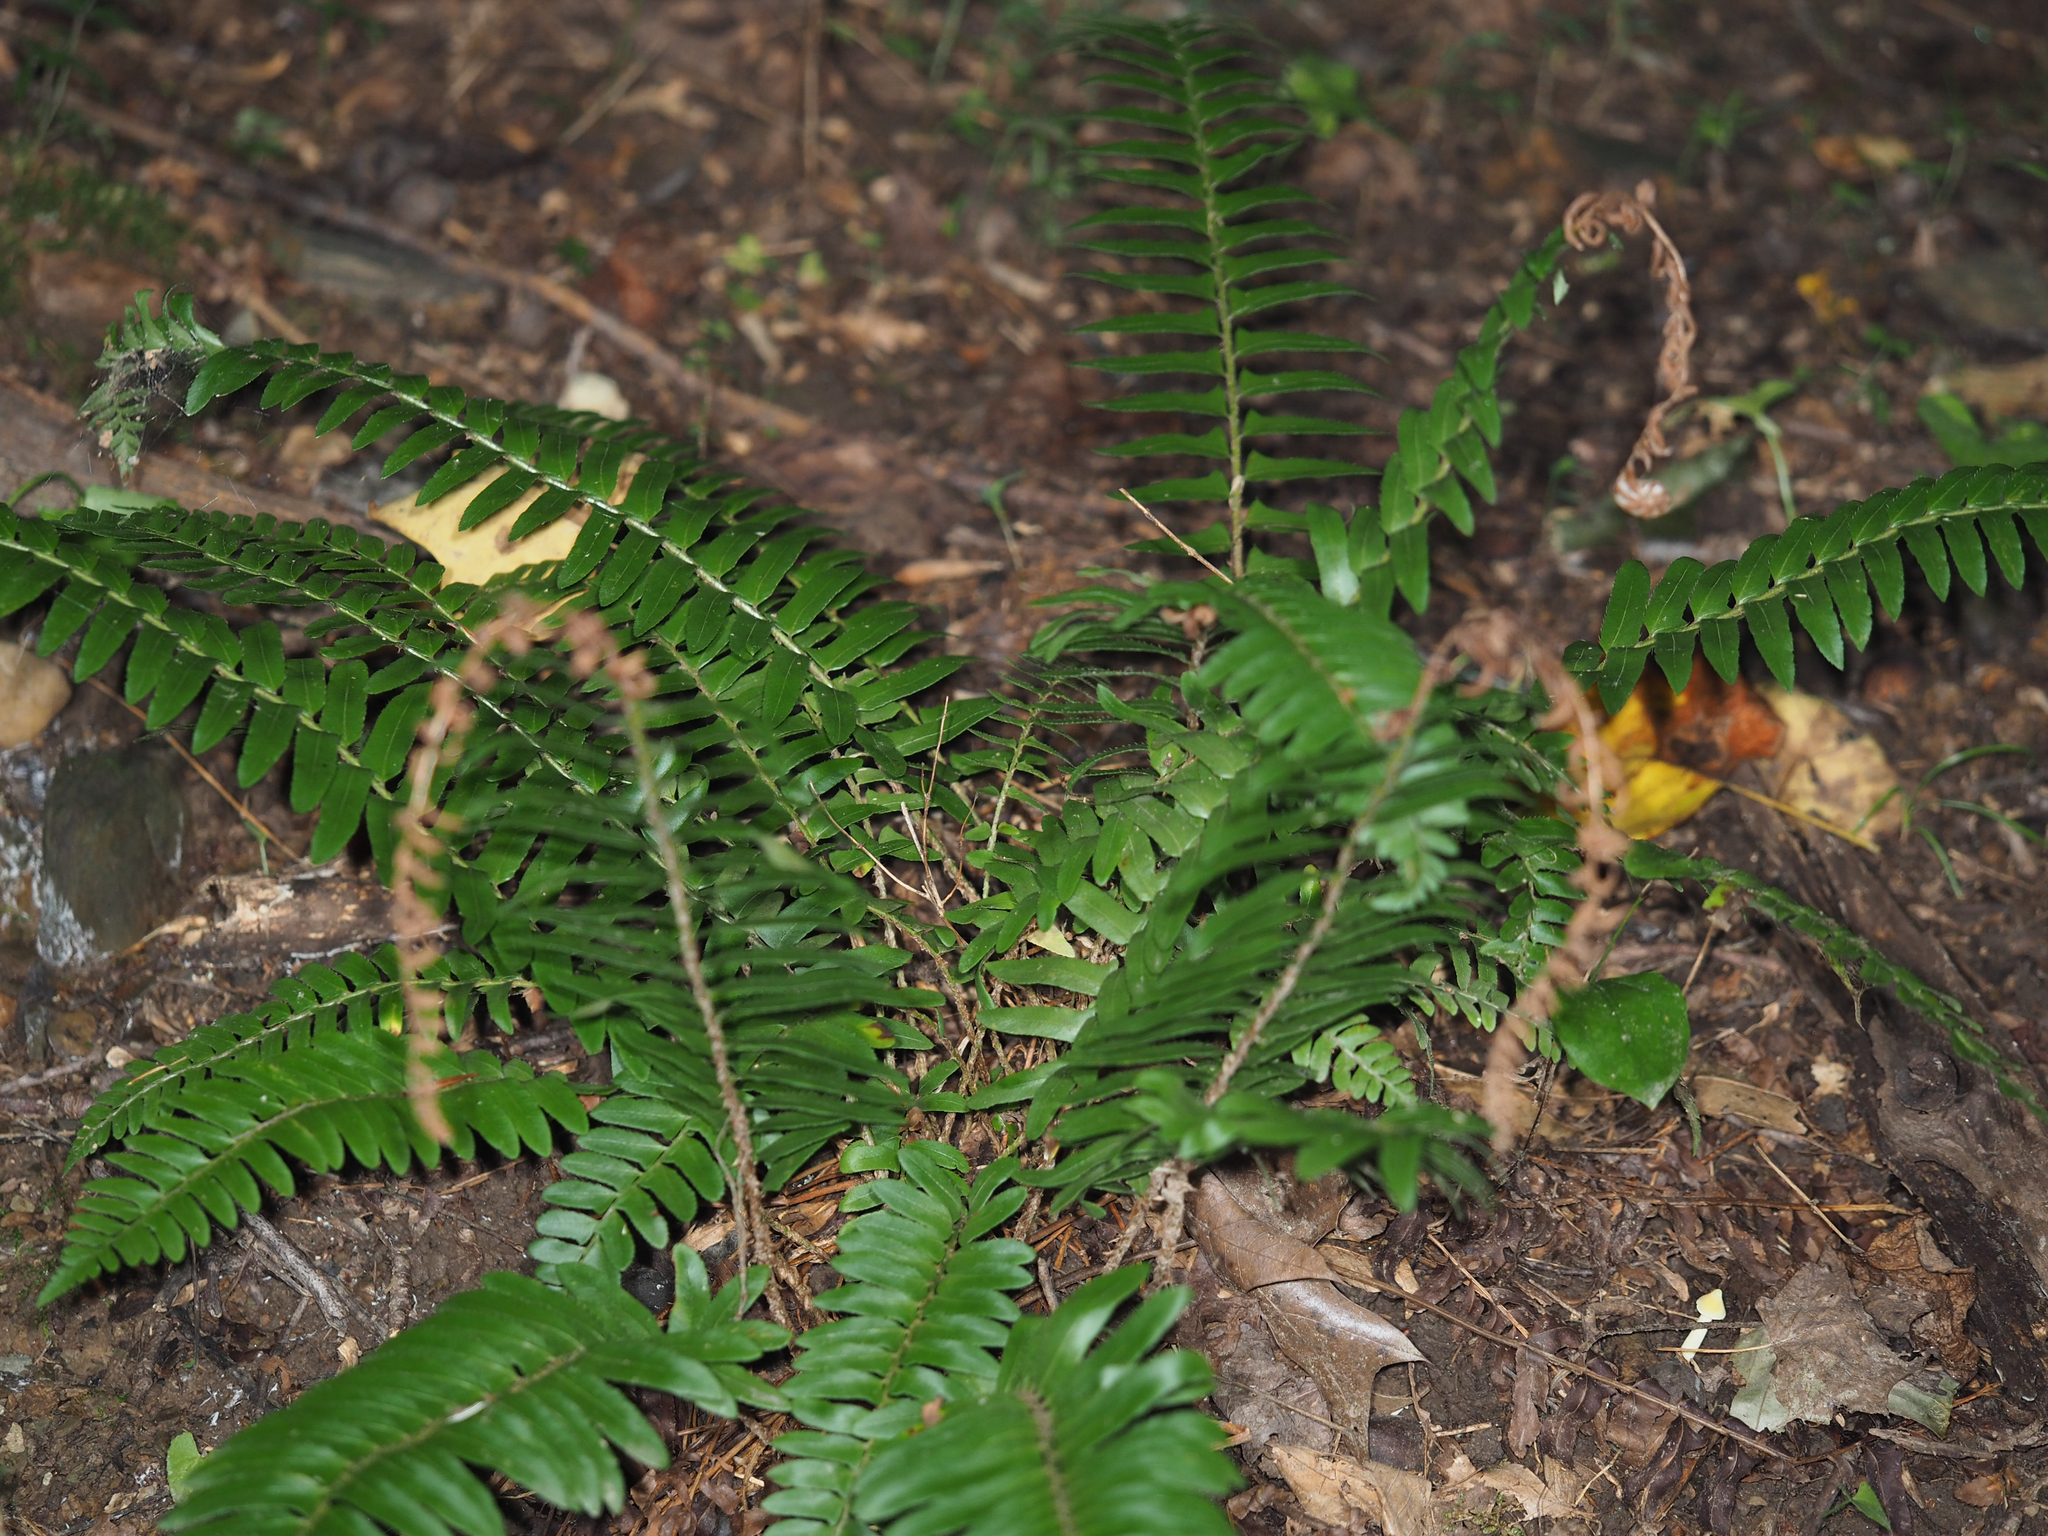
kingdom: Plantae
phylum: Tracheophyta
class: Polypodiopsida
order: Polypodiales
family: Dryopteridaceae
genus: Polystichum
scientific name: Polystichum acrostichoides
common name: Christmas fern
